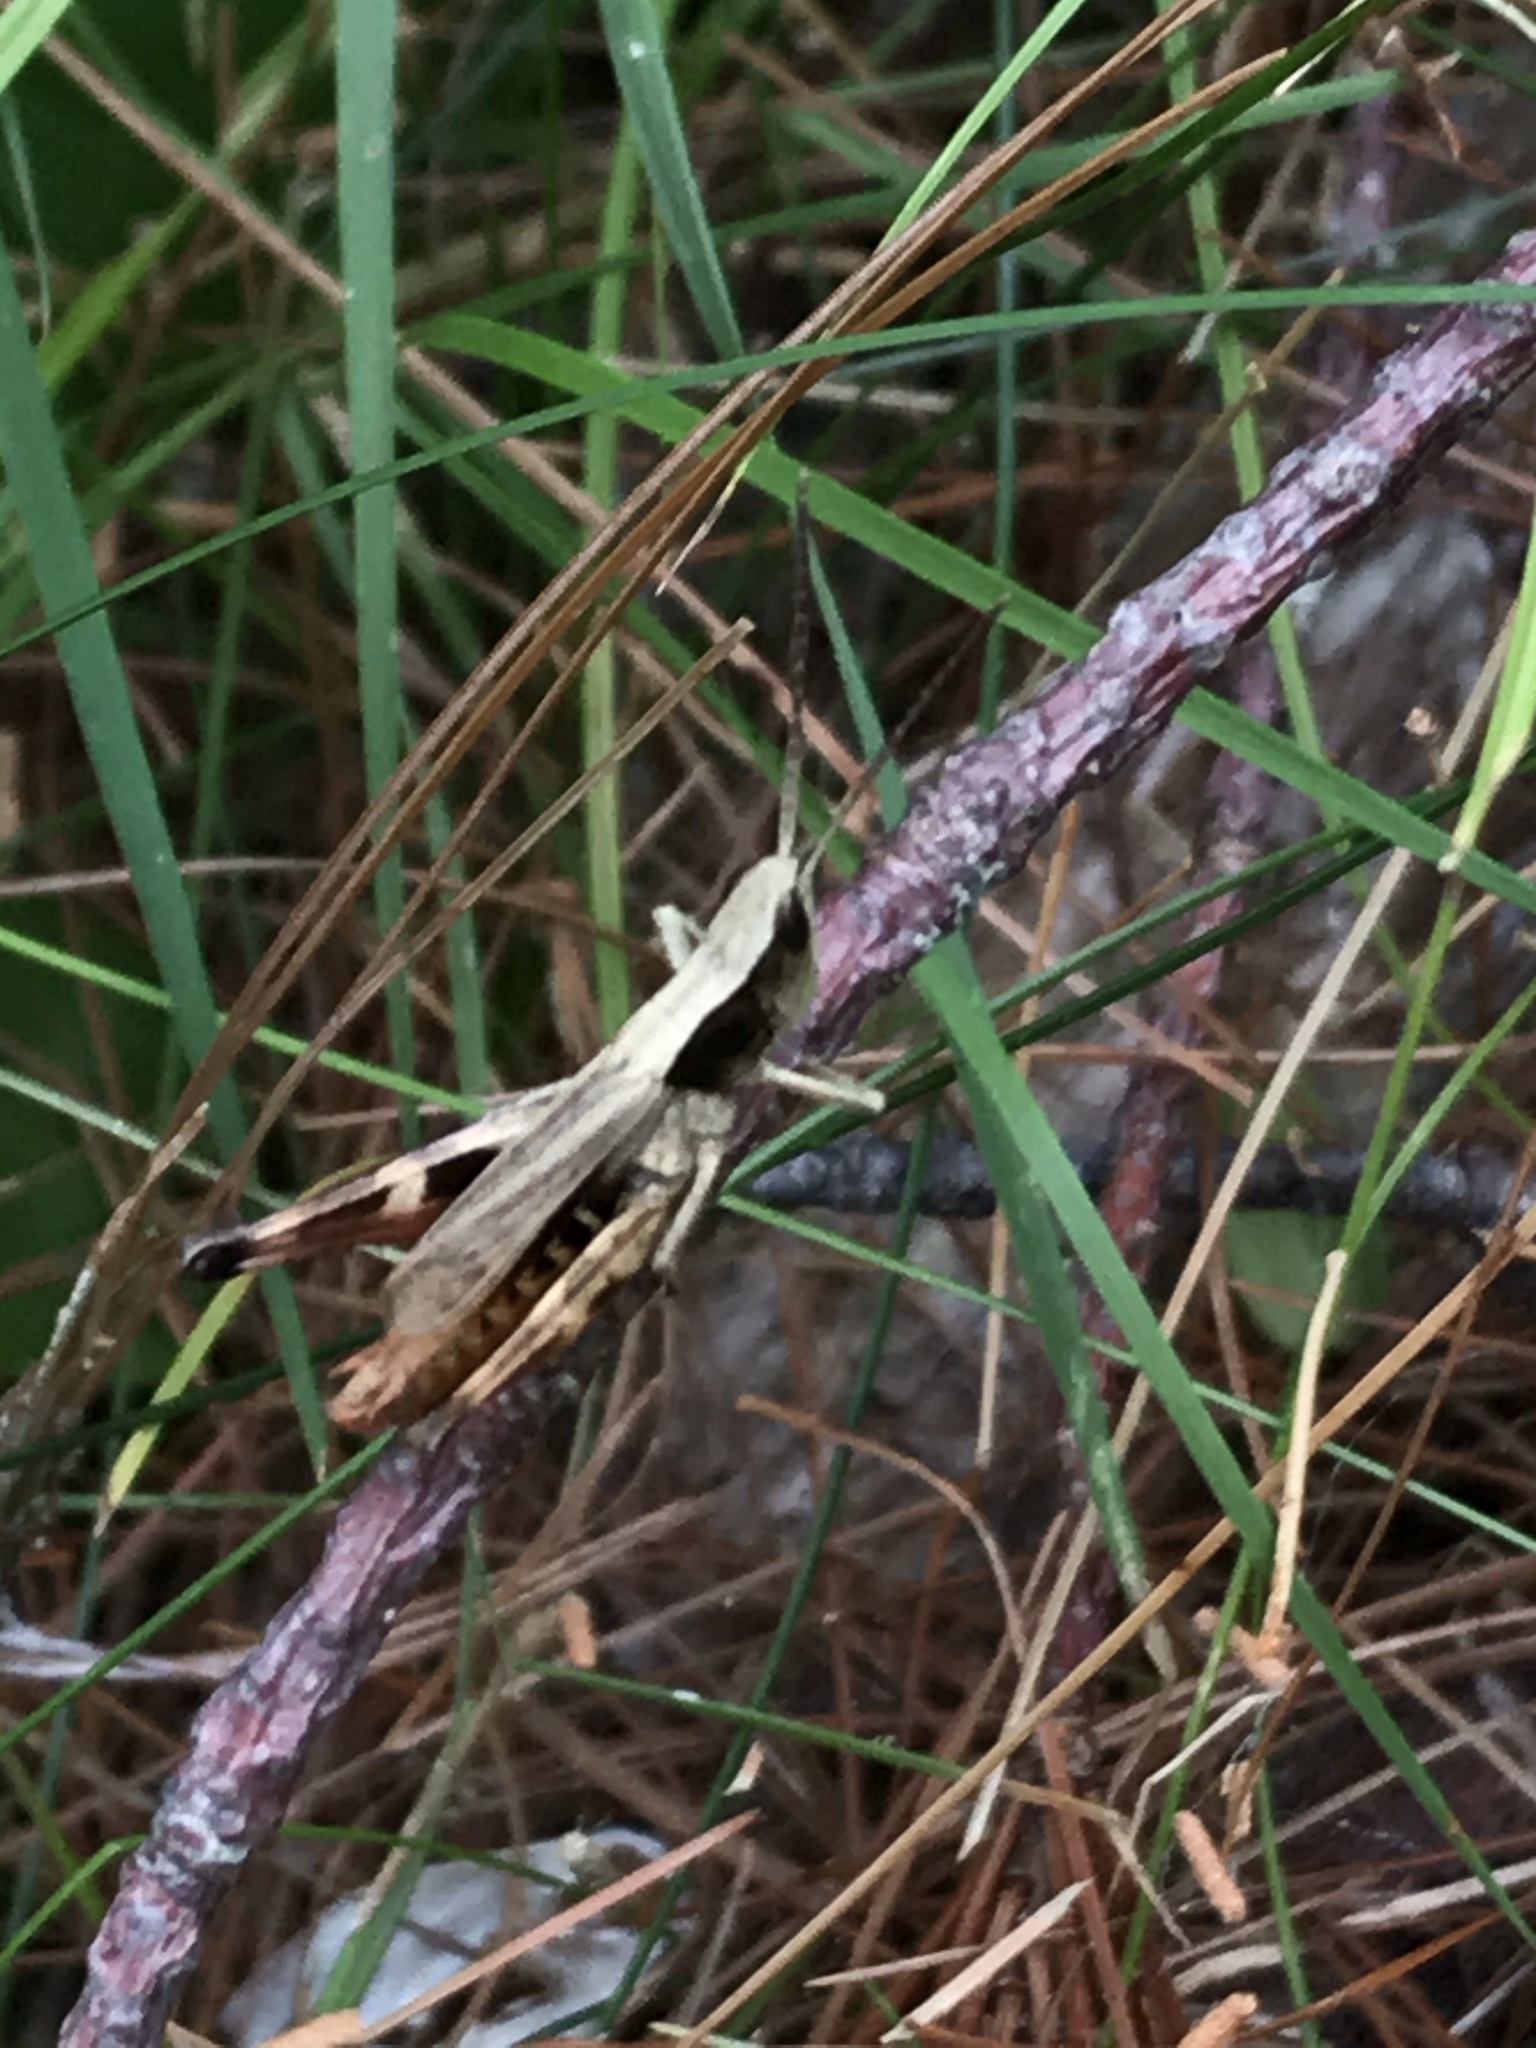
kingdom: Animalia
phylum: Arthropoda
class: Insecta
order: Orthoptera
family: Acrididae
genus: Chloealtis
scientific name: Chloealtis conspersa
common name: Sprinkled broad-winged grasshopper
